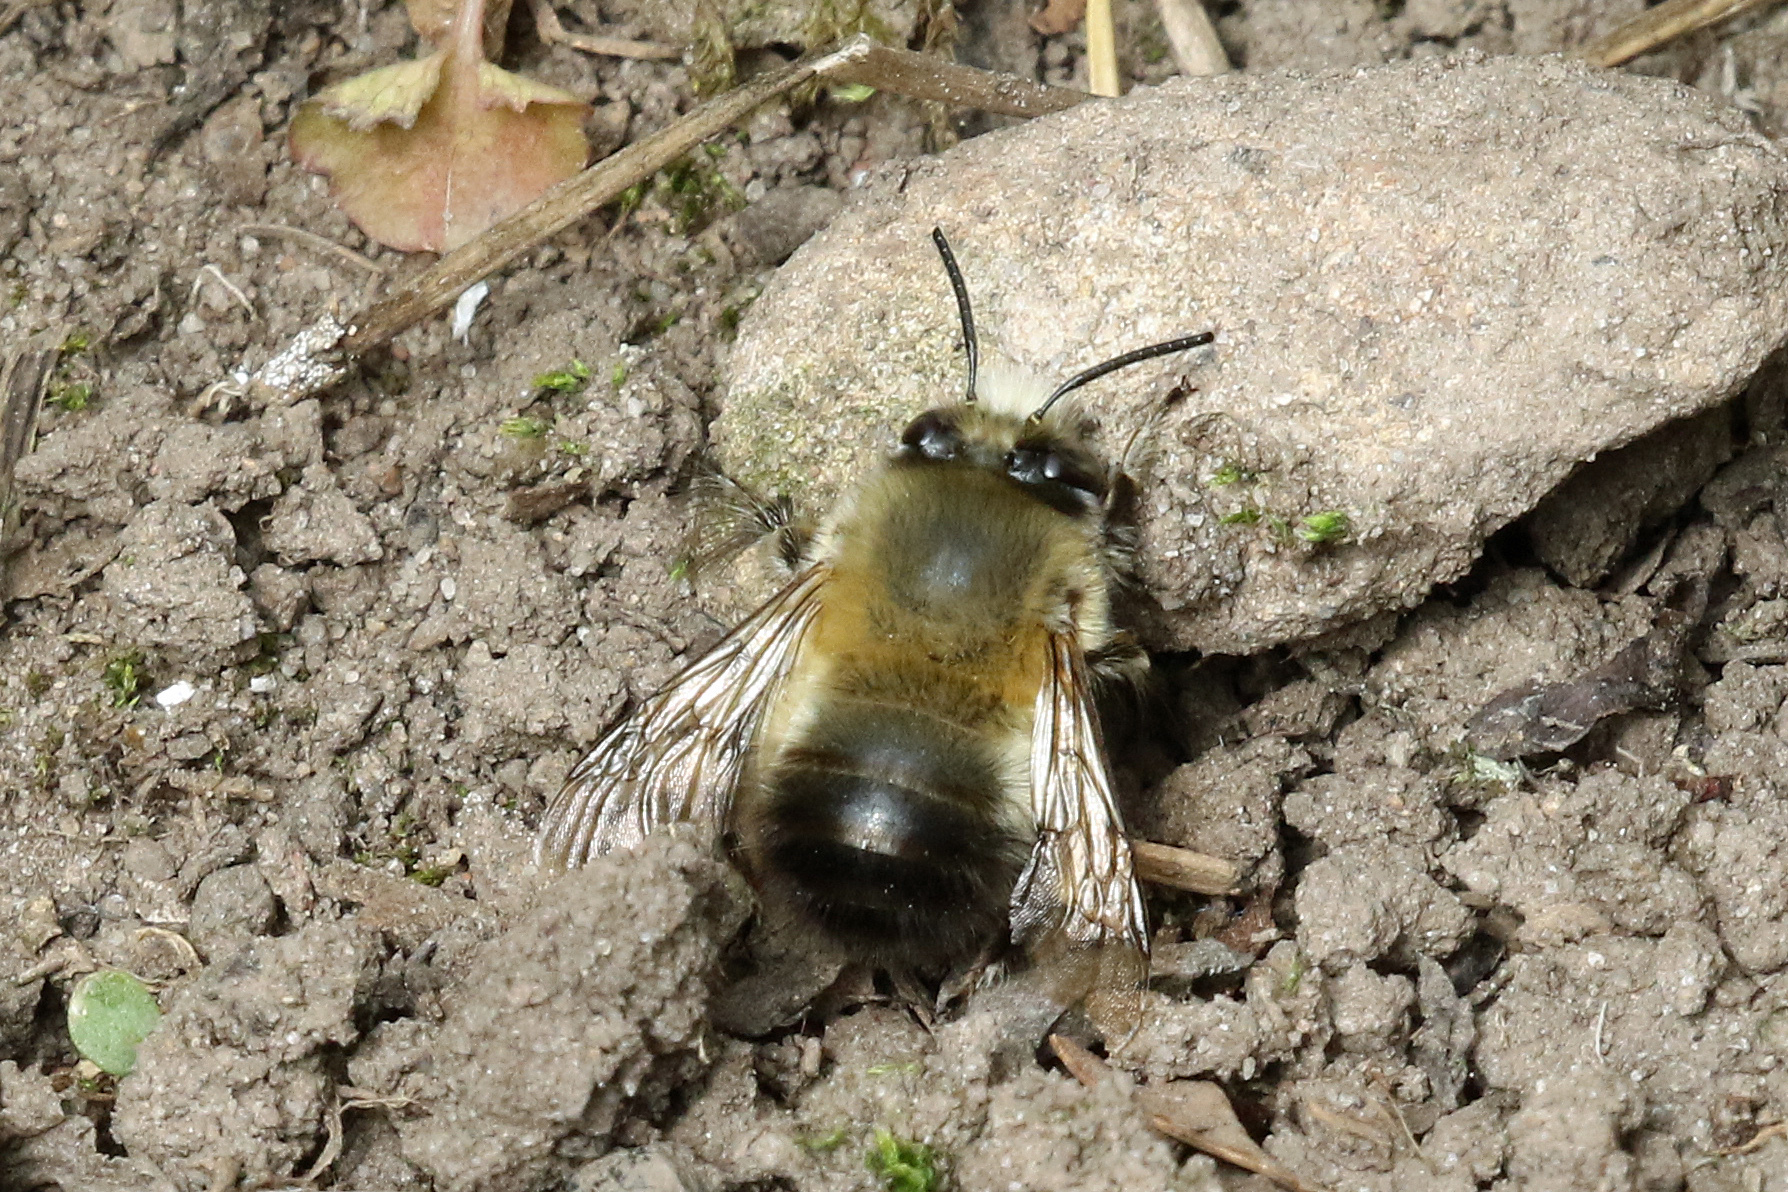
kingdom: Animalia
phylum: Arthropoda
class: Insecta
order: Hymenoptera
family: Apidae
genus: Anthophora
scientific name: Anthophora plumipes
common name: Hairy-footed flower bee
